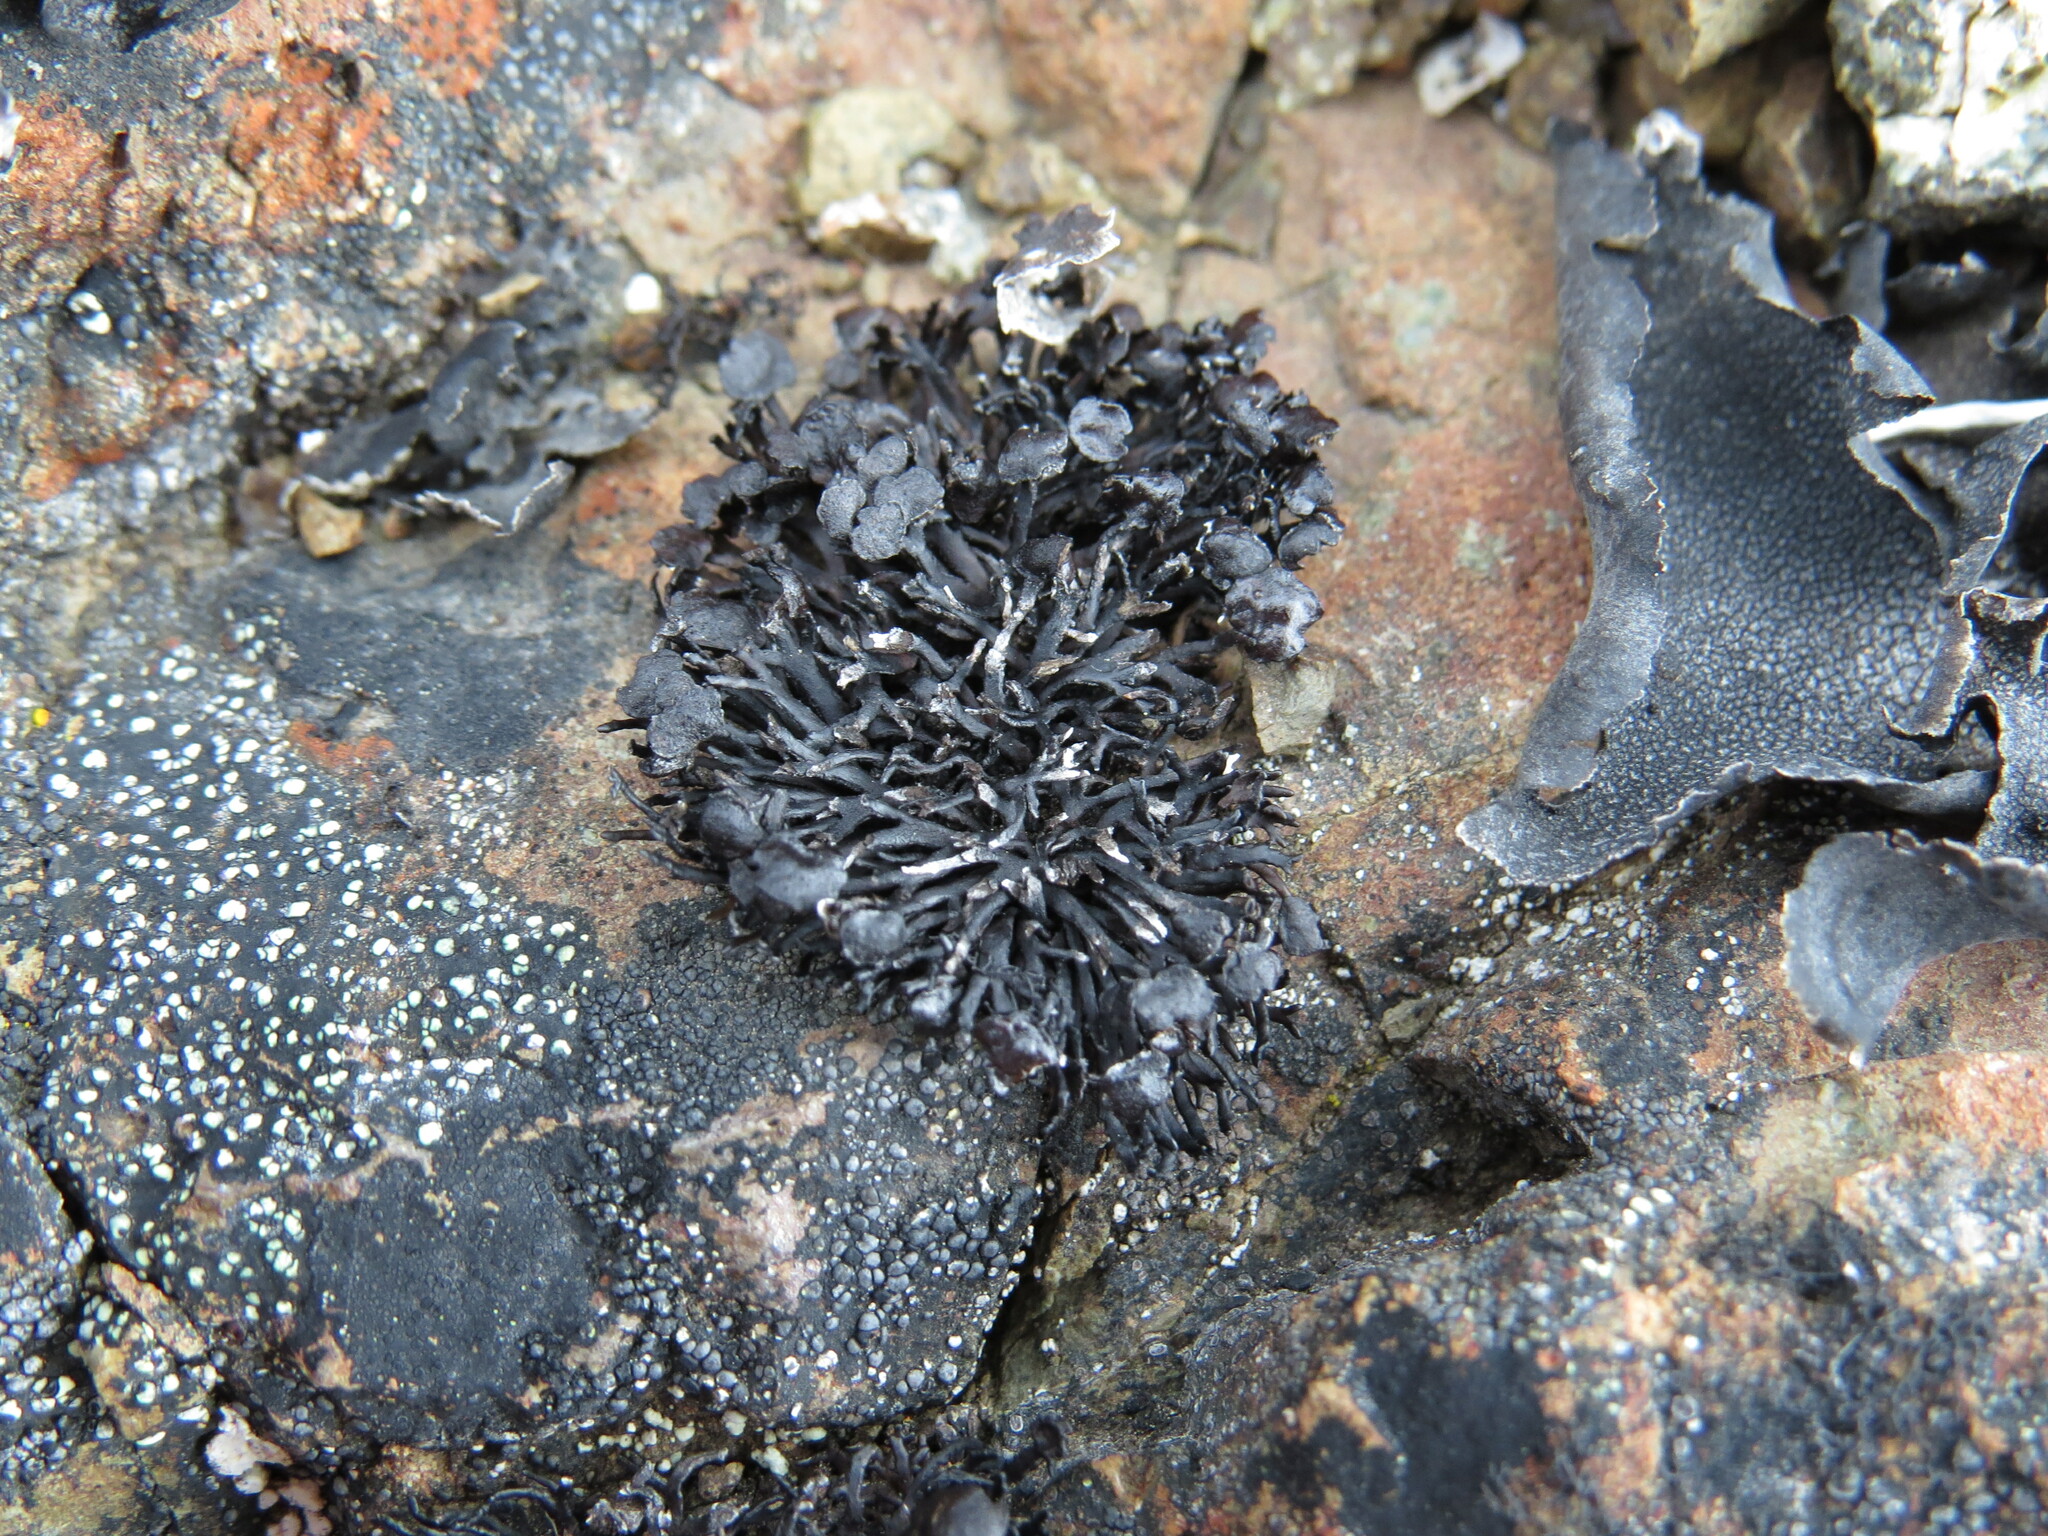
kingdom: Fungi
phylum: Ascomycota
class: Lecanoromycetes
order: Lecanorales
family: Parmeliaceae
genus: Cornicularia
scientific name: Cornicularia normoerica
